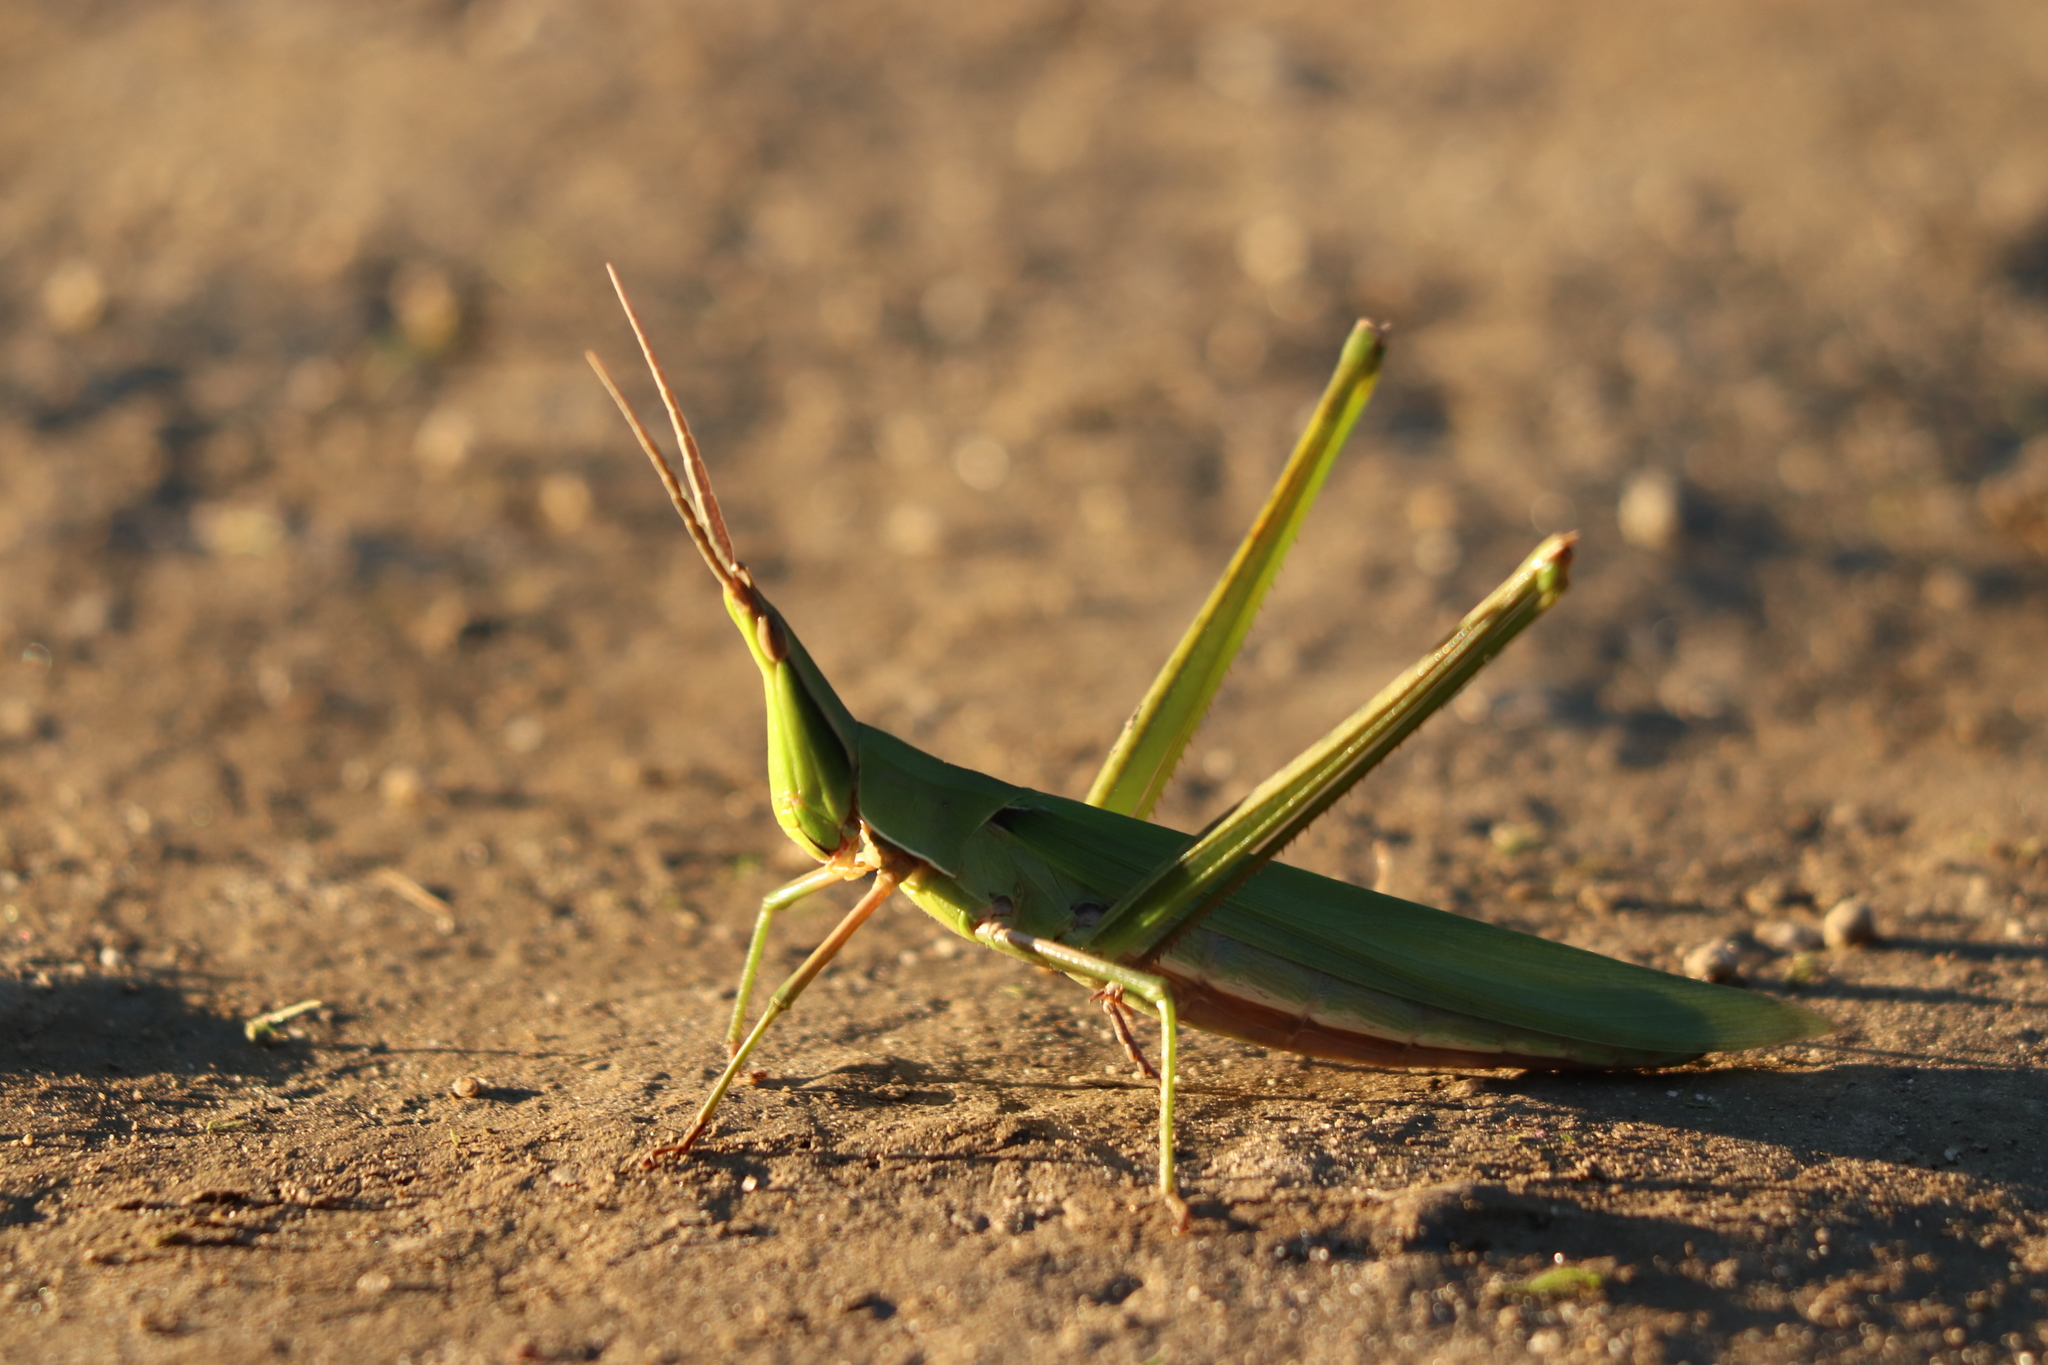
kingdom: Animalia
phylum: Arthropoda
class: Insecta
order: Orthoptera
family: Acrididae
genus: Acrida
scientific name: Acrida cinerea
